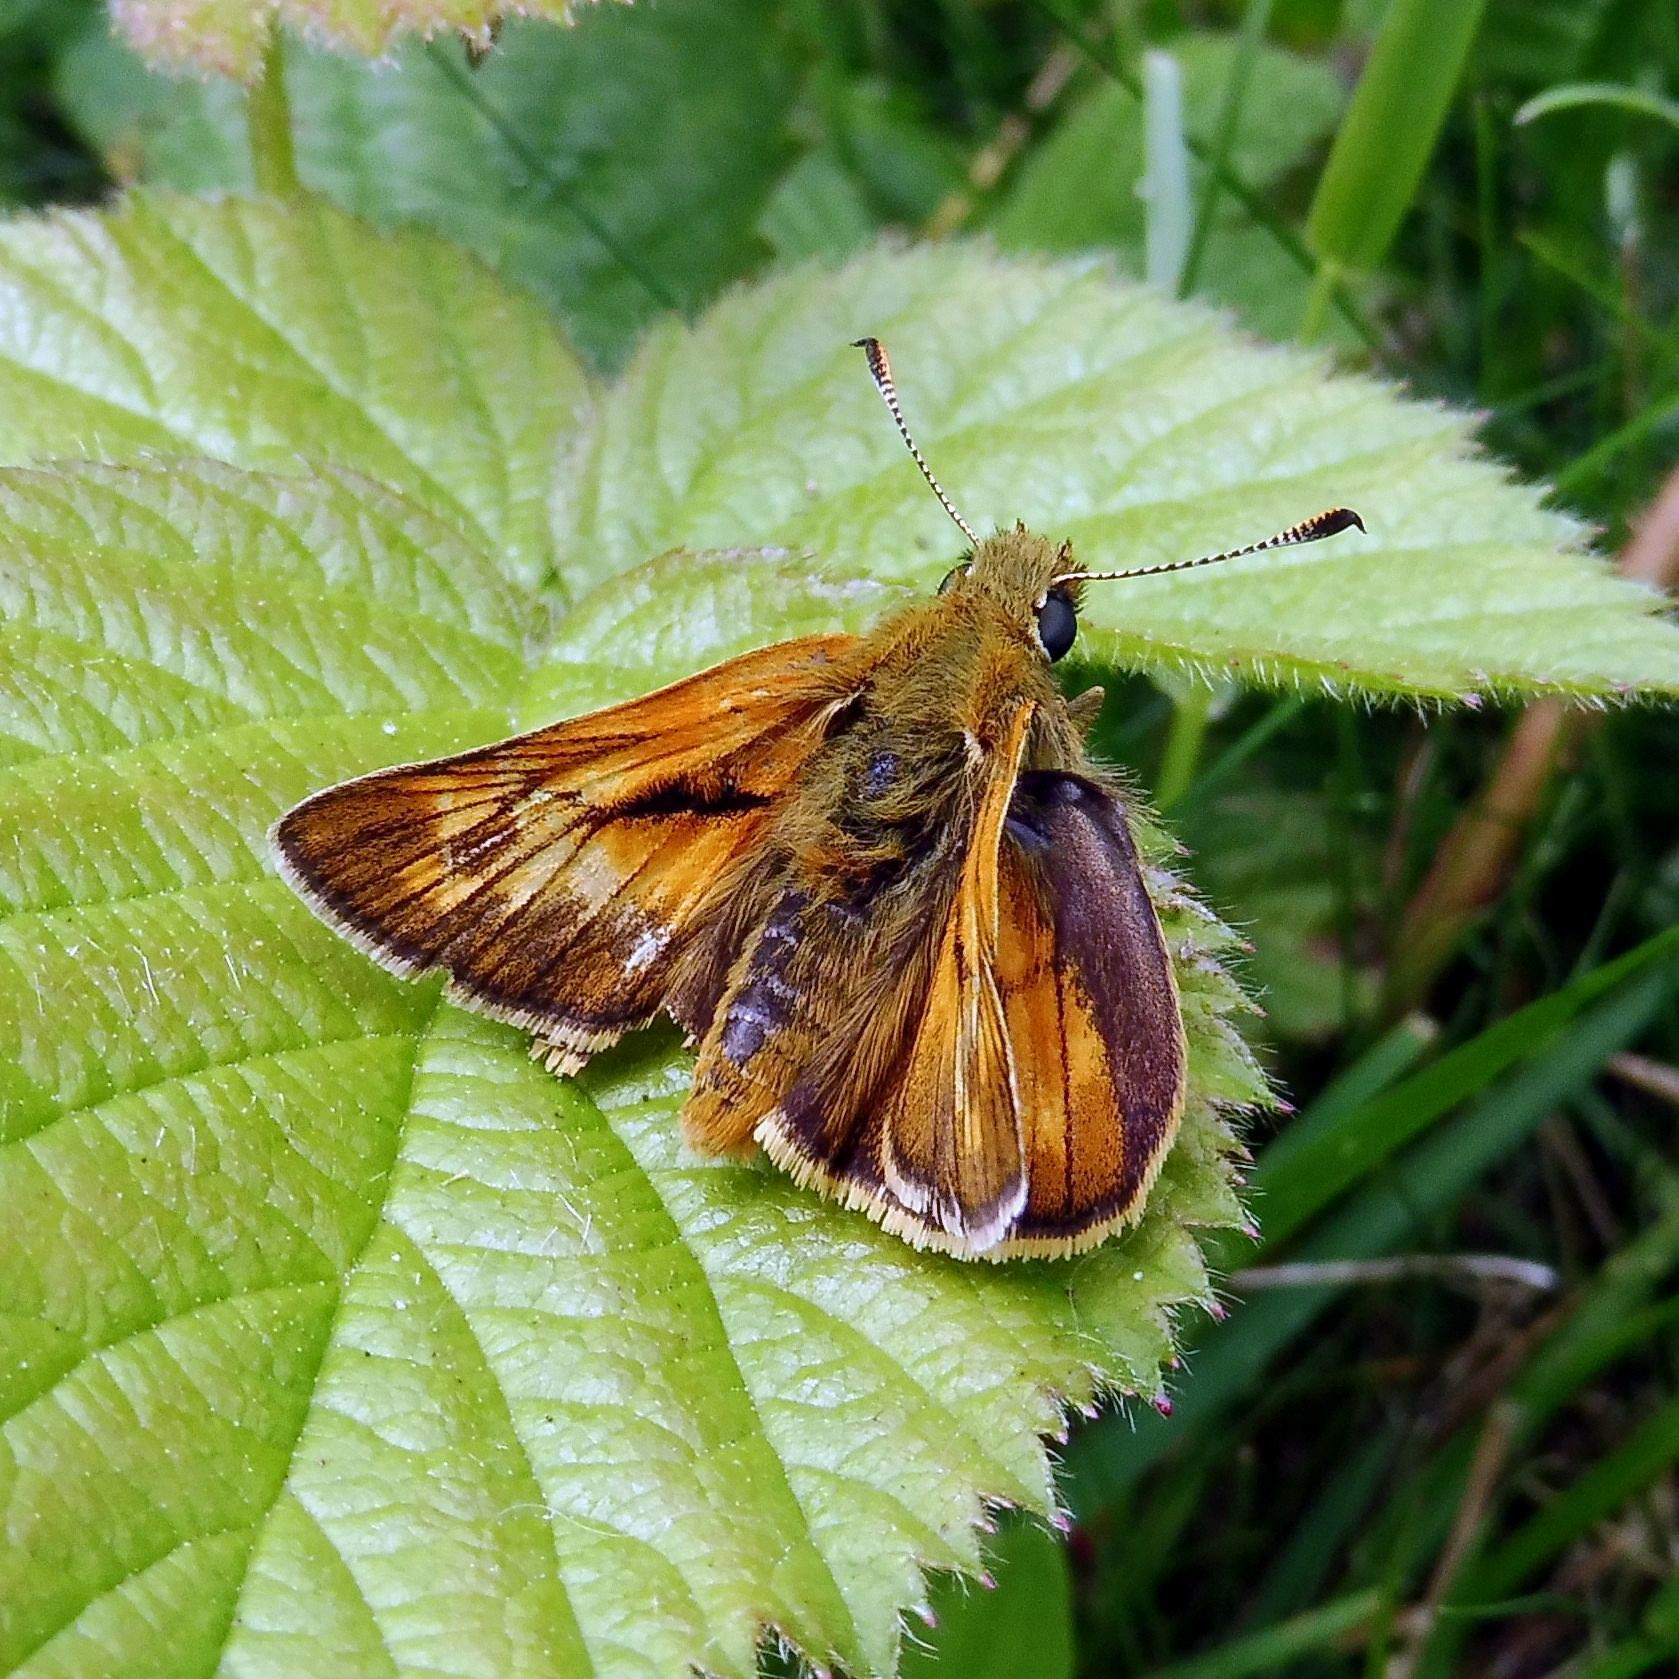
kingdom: Animalia
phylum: Arthropoda
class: Insecta
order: Lepidoptera
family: Hesperiidae
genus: Ochlodes
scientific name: Ochlodes venata
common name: Large skipper
